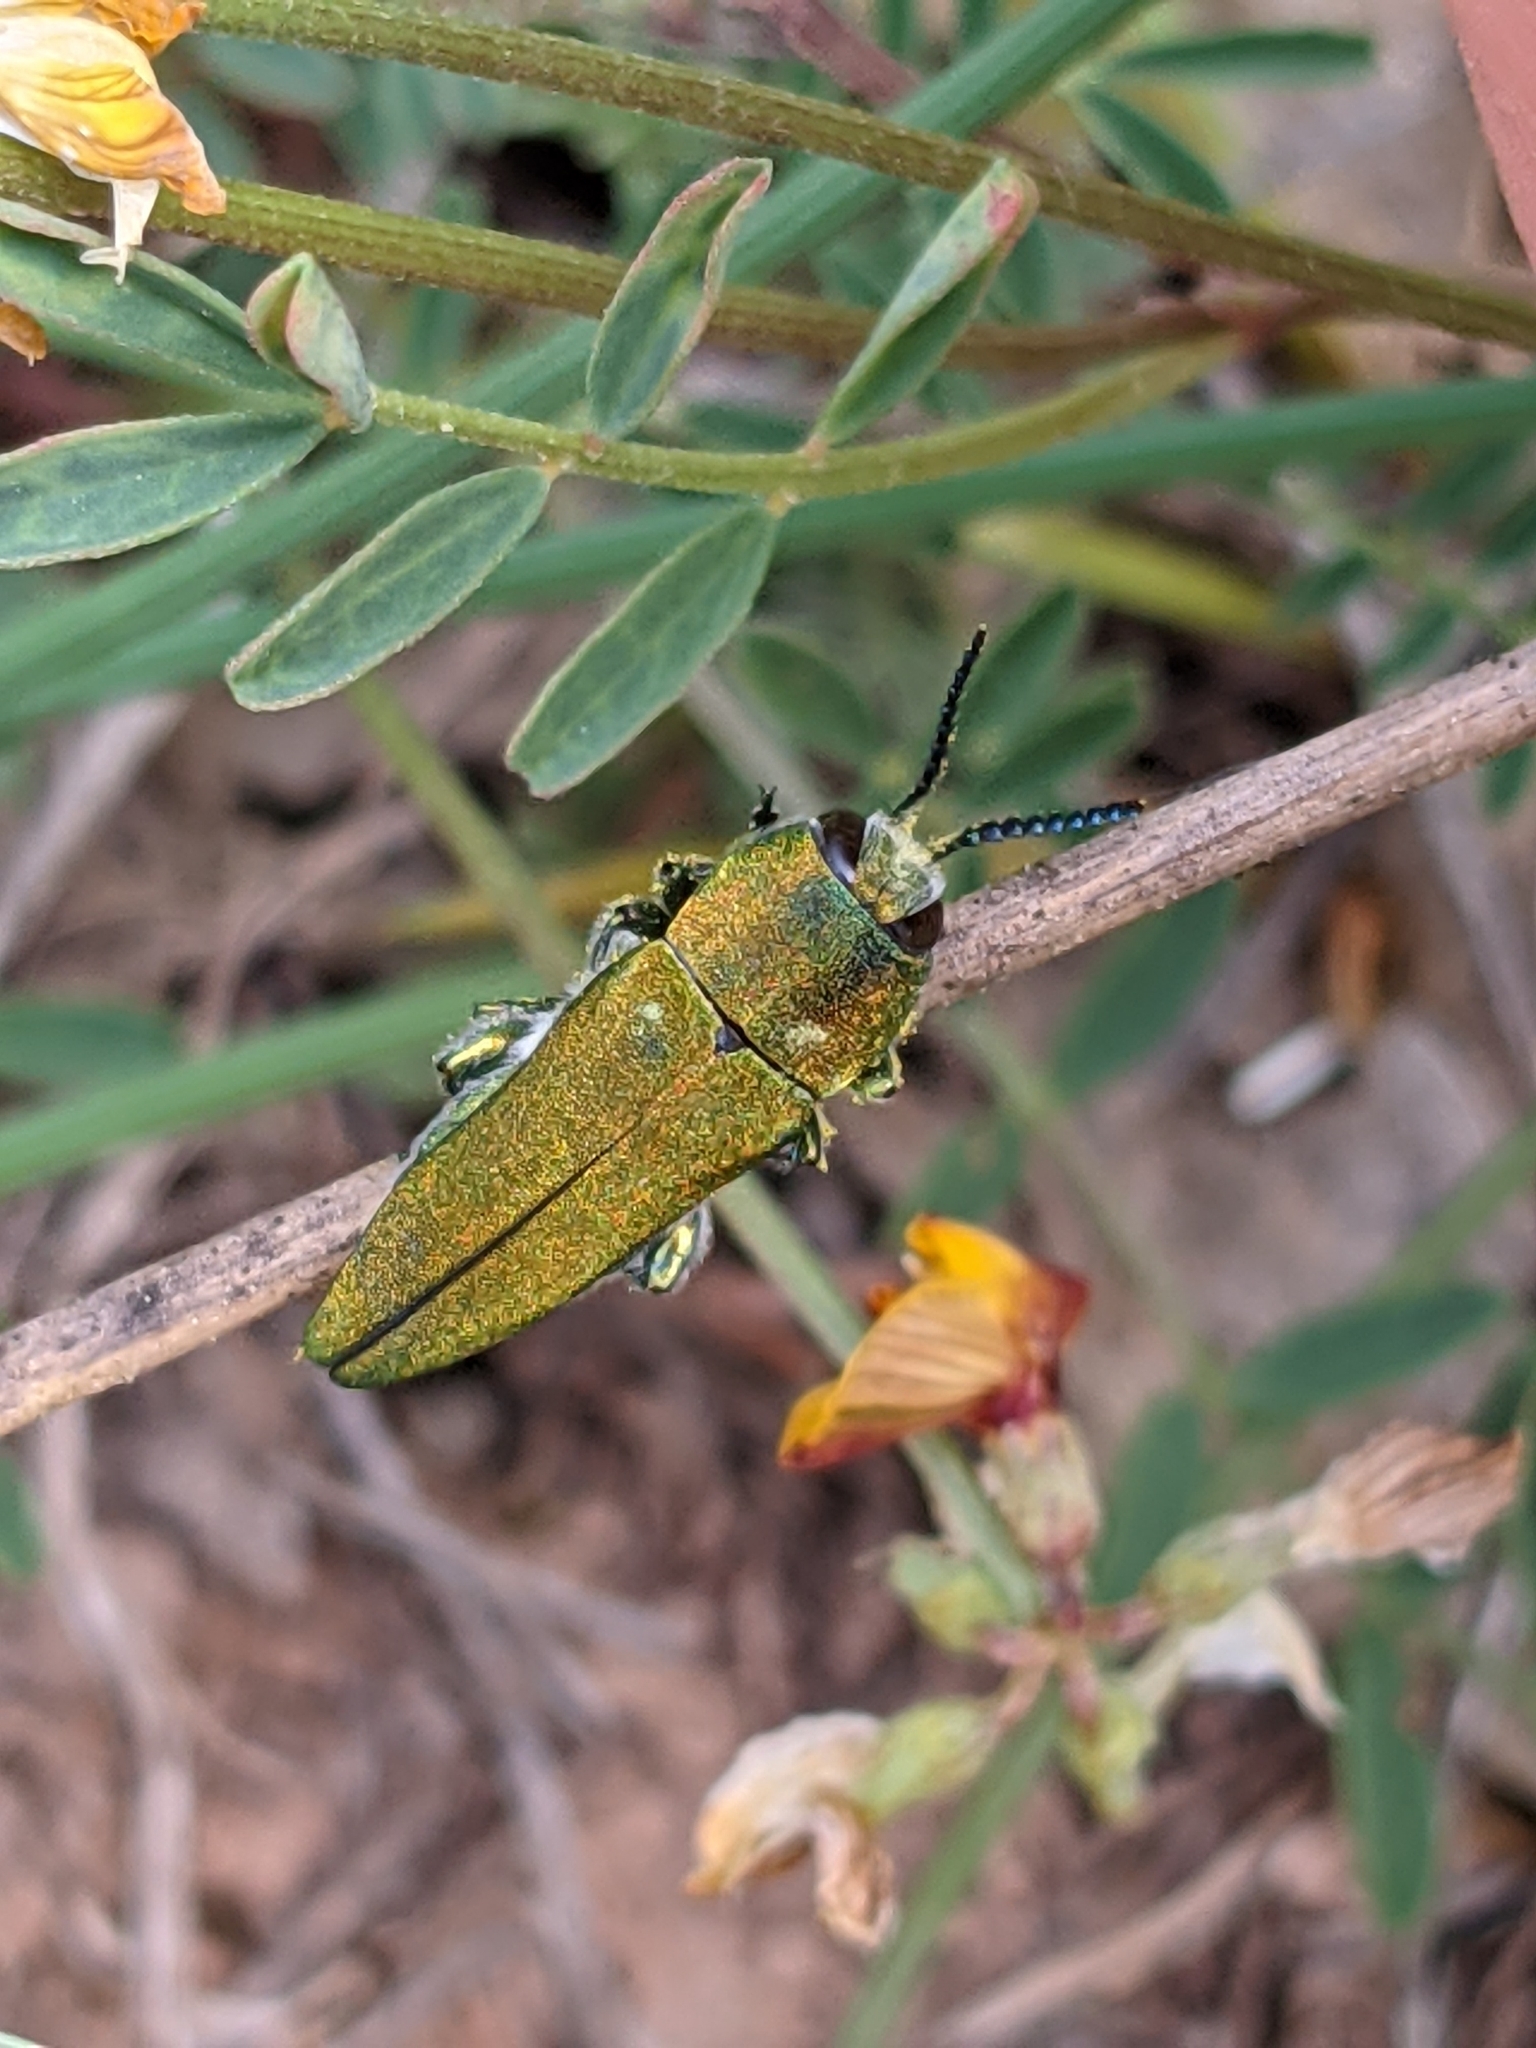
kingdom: Animalia
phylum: Arthropoda
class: Insecta
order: Coleoptera
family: Buprestidae
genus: Anthaxia
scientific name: Anthaxia hungarica
